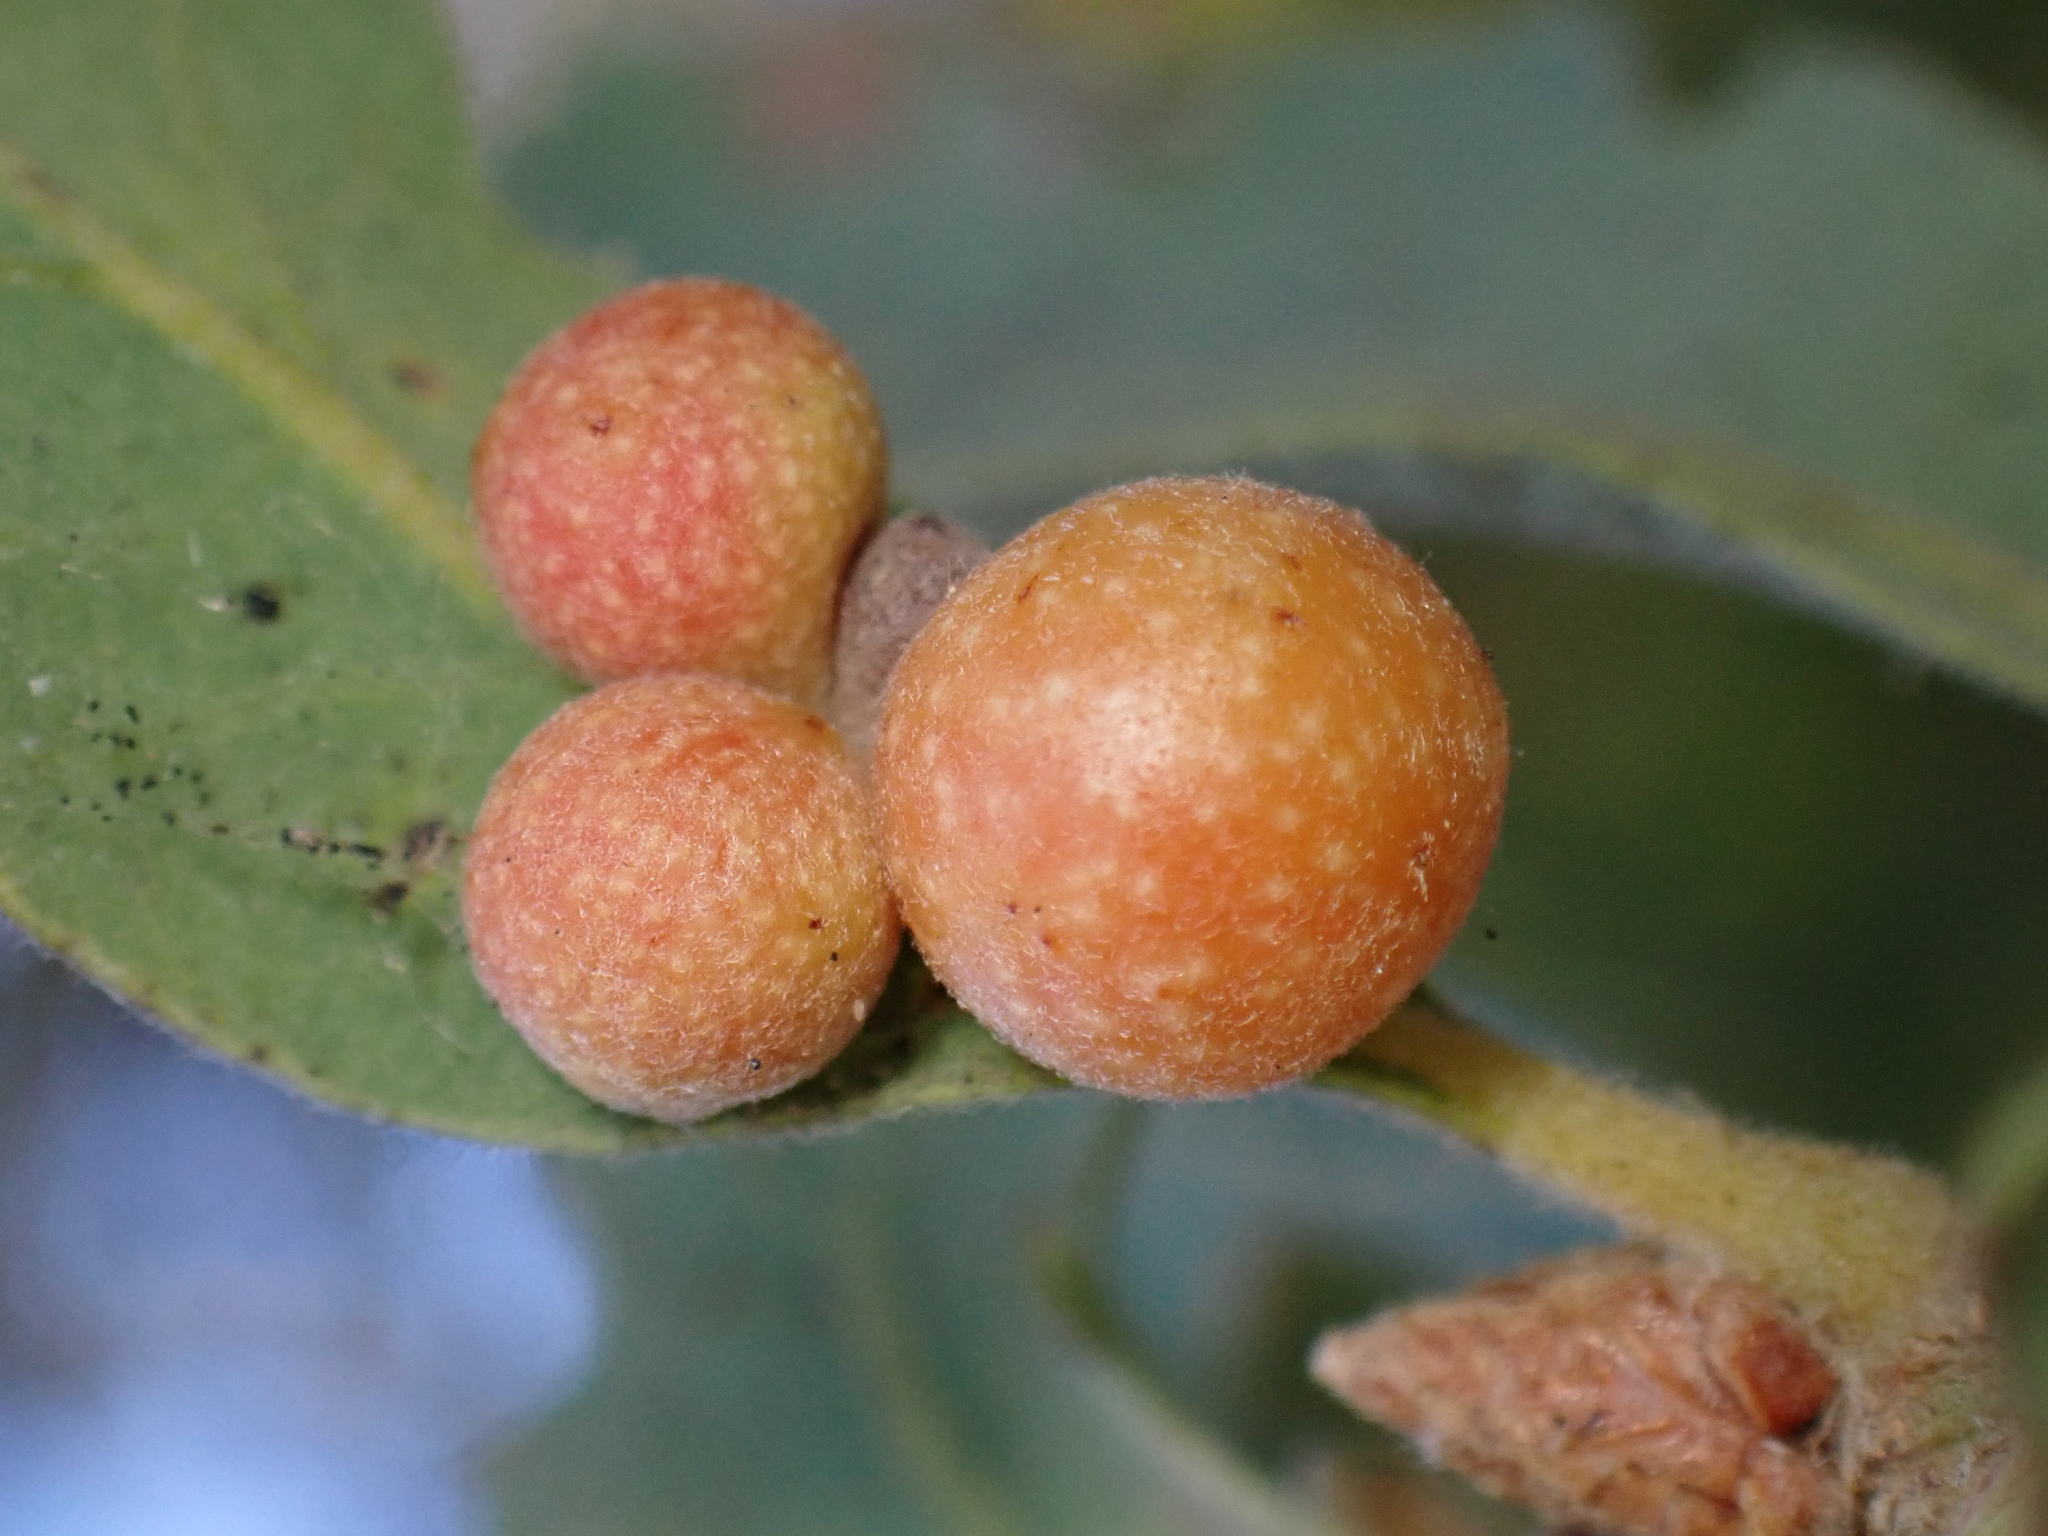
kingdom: Animalia
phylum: Arthropoda
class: Insecta
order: Hymenoptera
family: Cynipidae
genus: Andricus
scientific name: Andricus
